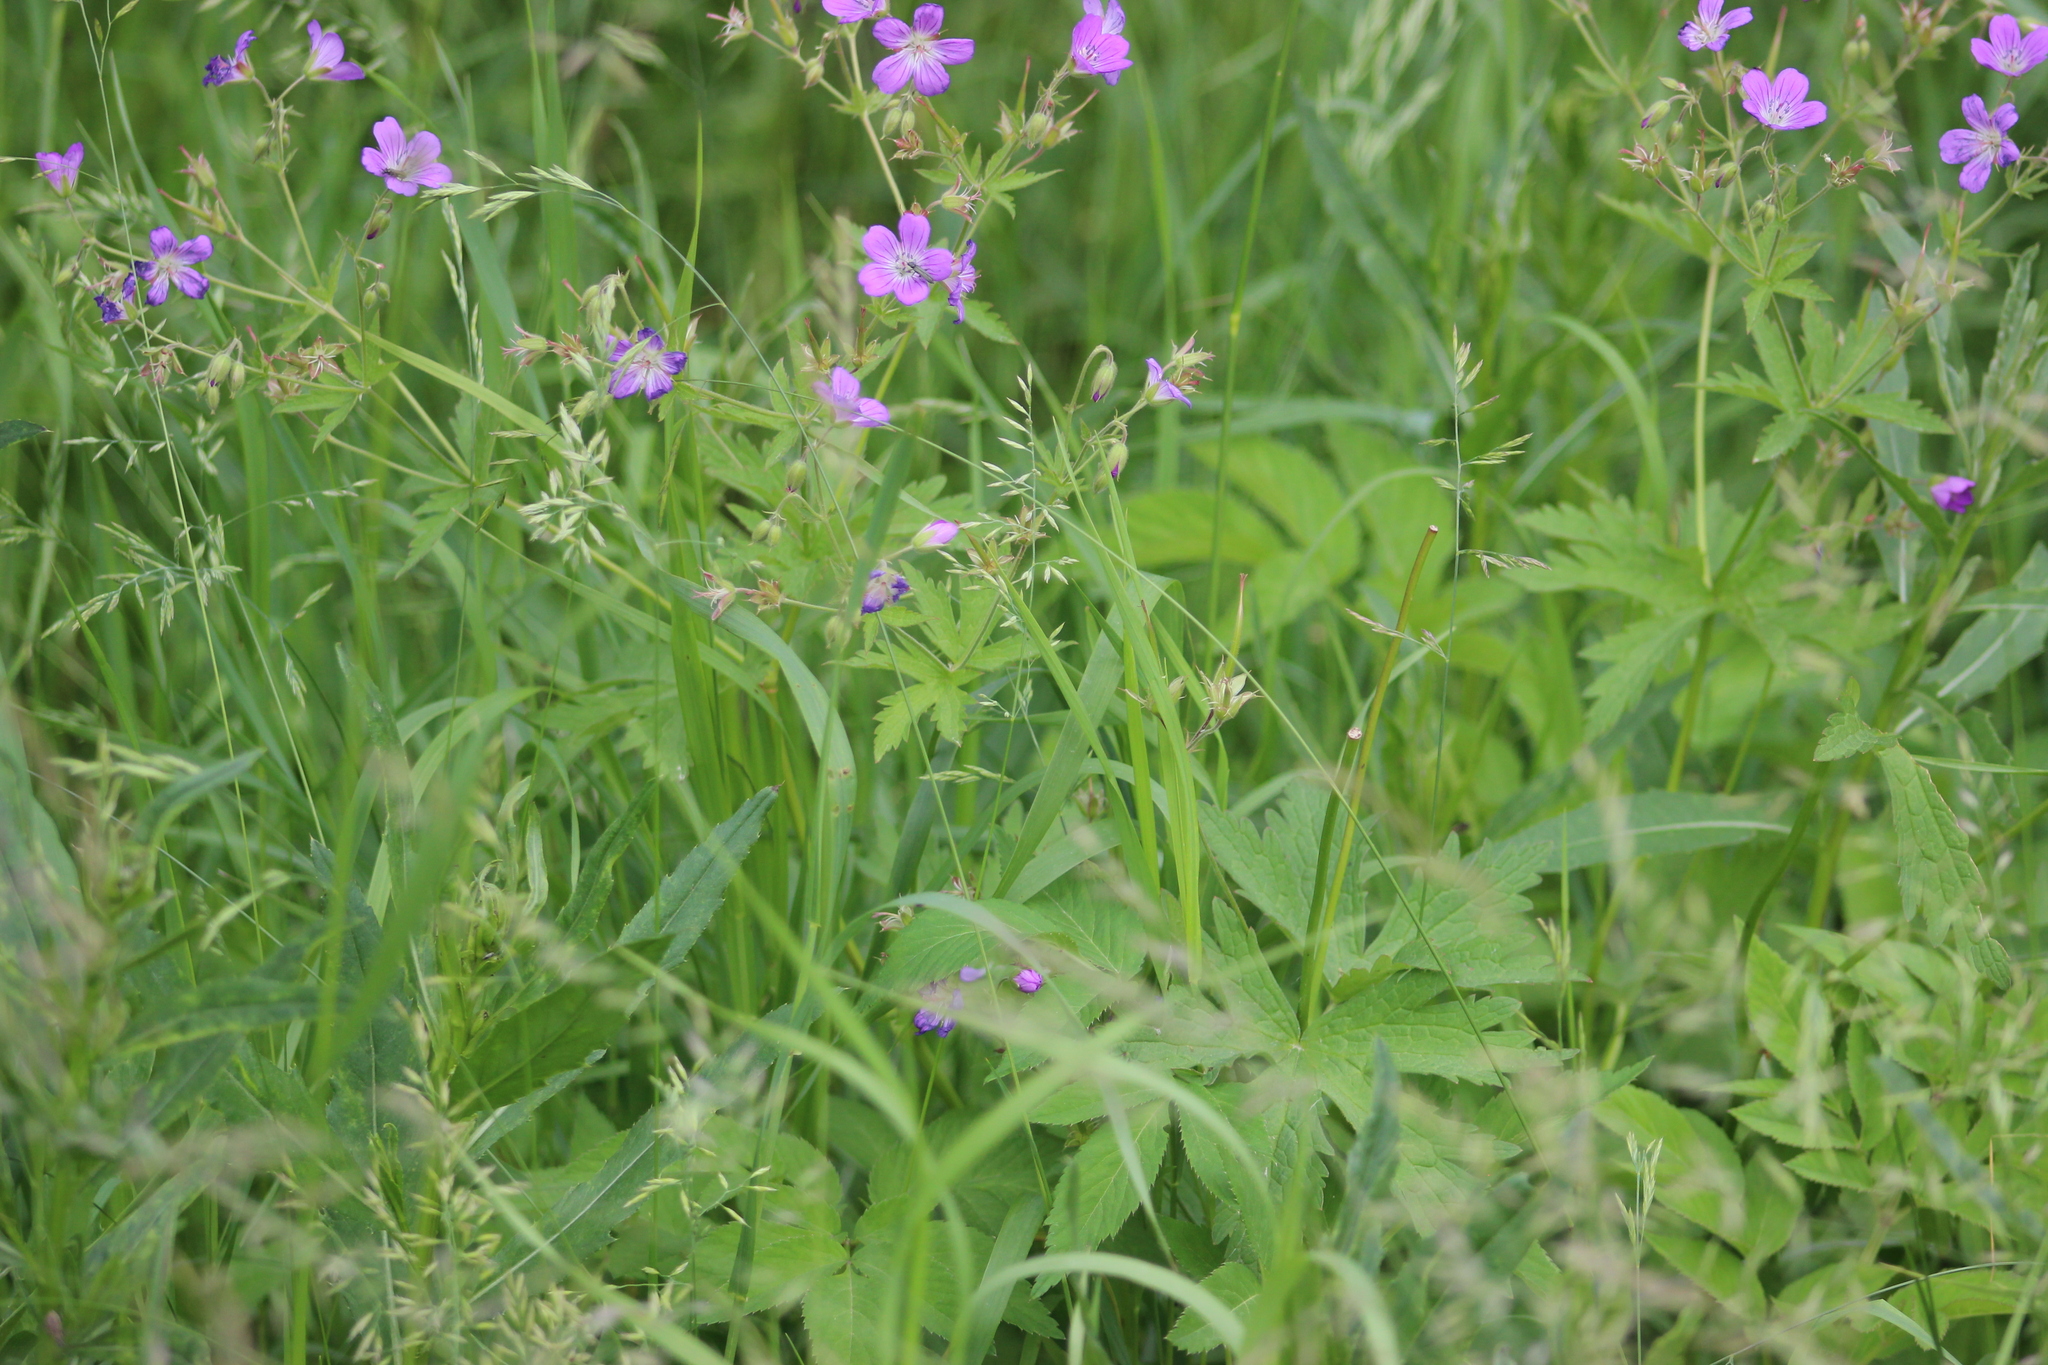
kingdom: Plantae
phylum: Tracheophyta
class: Magnoliopsida
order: Geraniales
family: Geraniaceae
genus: Geranium
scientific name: Geranium sylvaticum
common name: Wood crane's-bill
